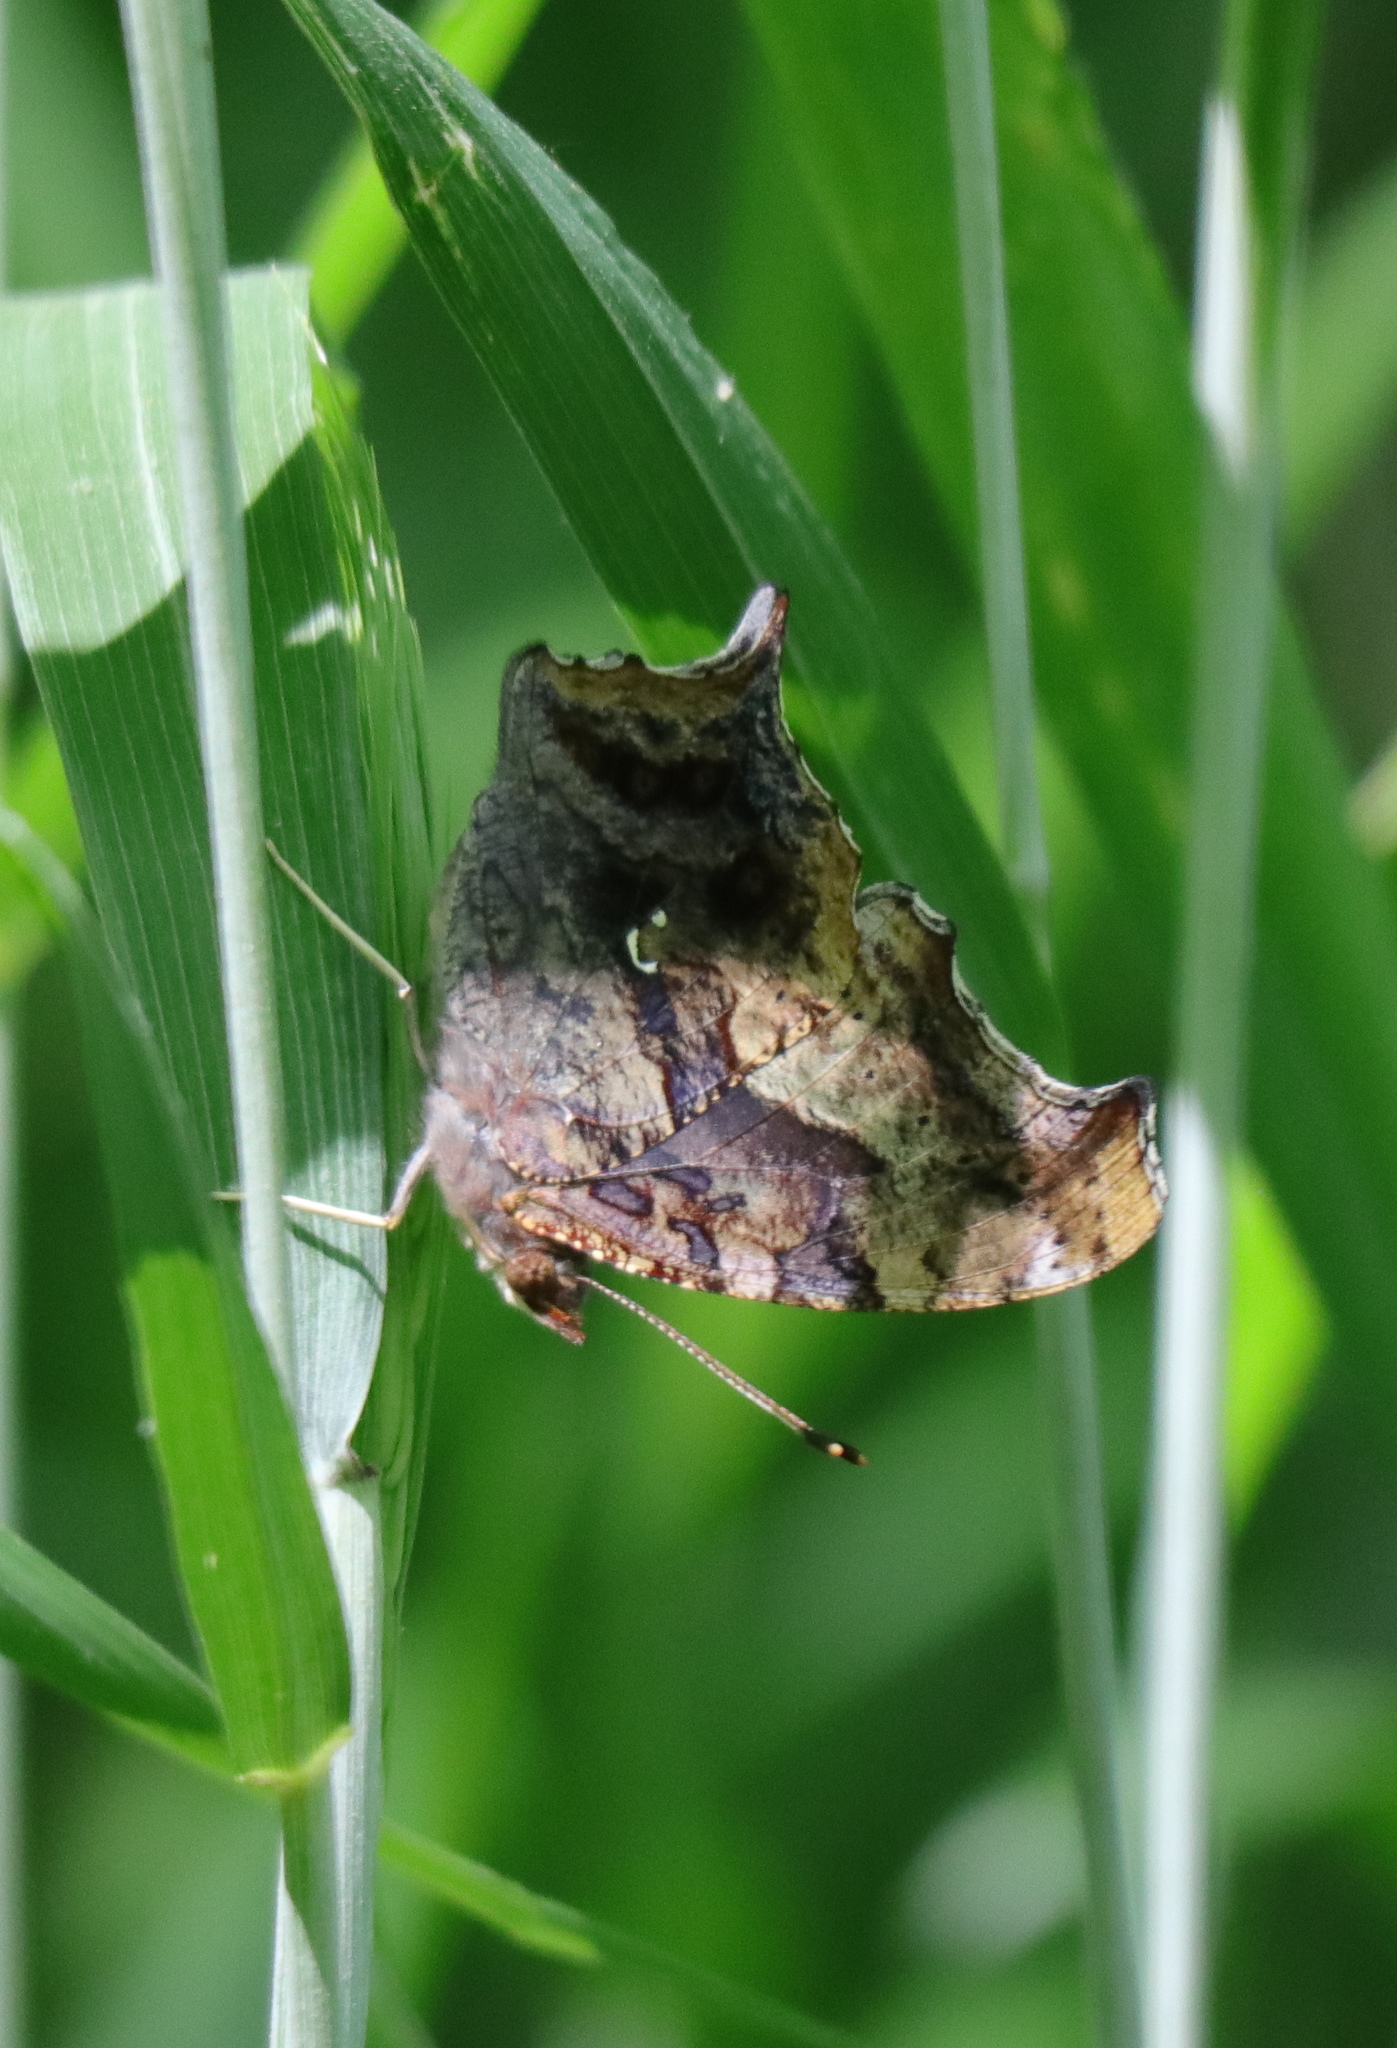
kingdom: Animalia
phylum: Arthropoda
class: Insecta
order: Lepidoptera
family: Nymphalidae
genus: Polygonia
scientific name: Polygonia interrogationis
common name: Question mark
